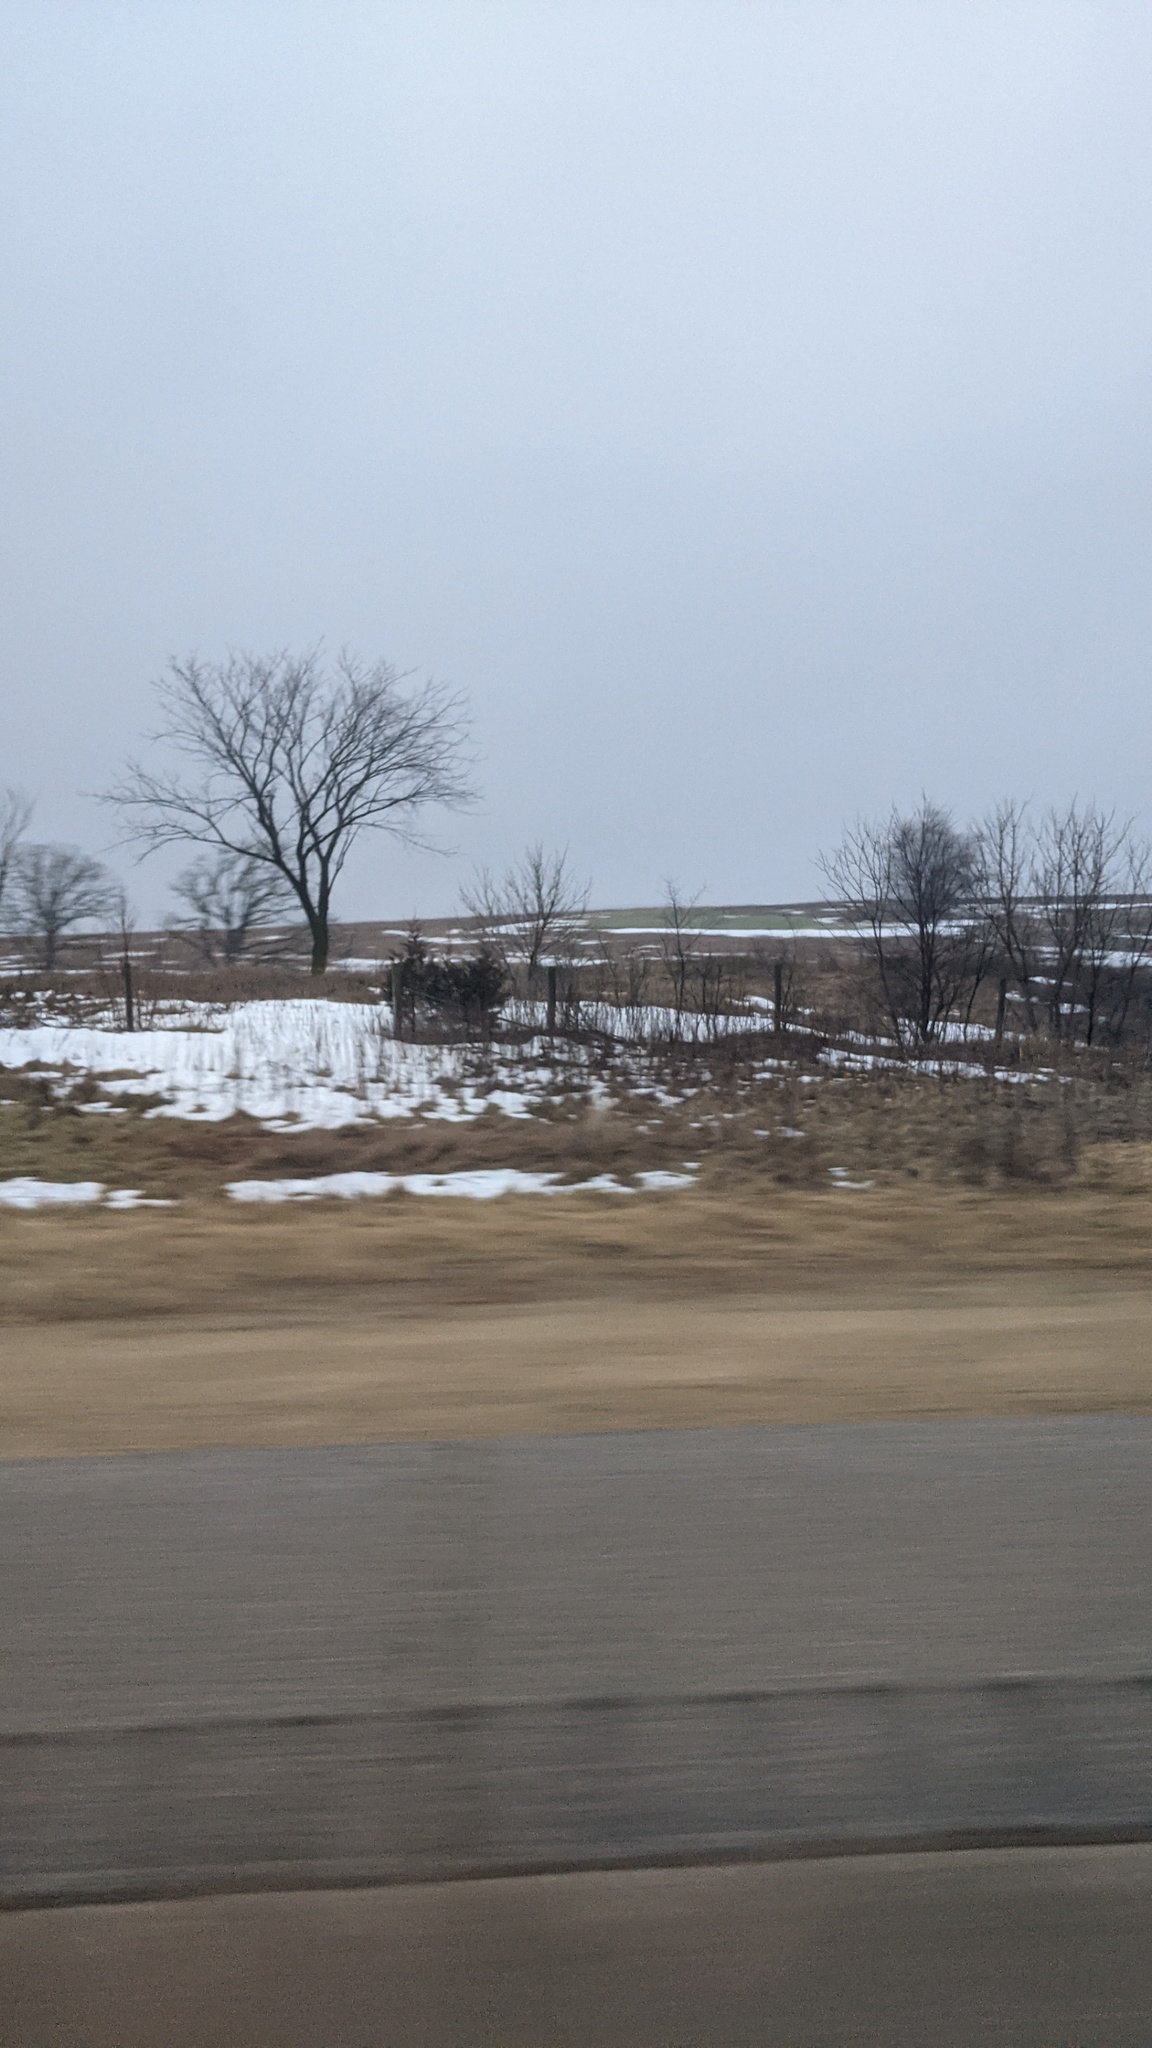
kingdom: Plantae
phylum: Tracheophyta
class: Pinopsida
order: Pinales
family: Cupressaceae
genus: Juniperus
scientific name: Juniperus virginiana
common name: Red juniper
